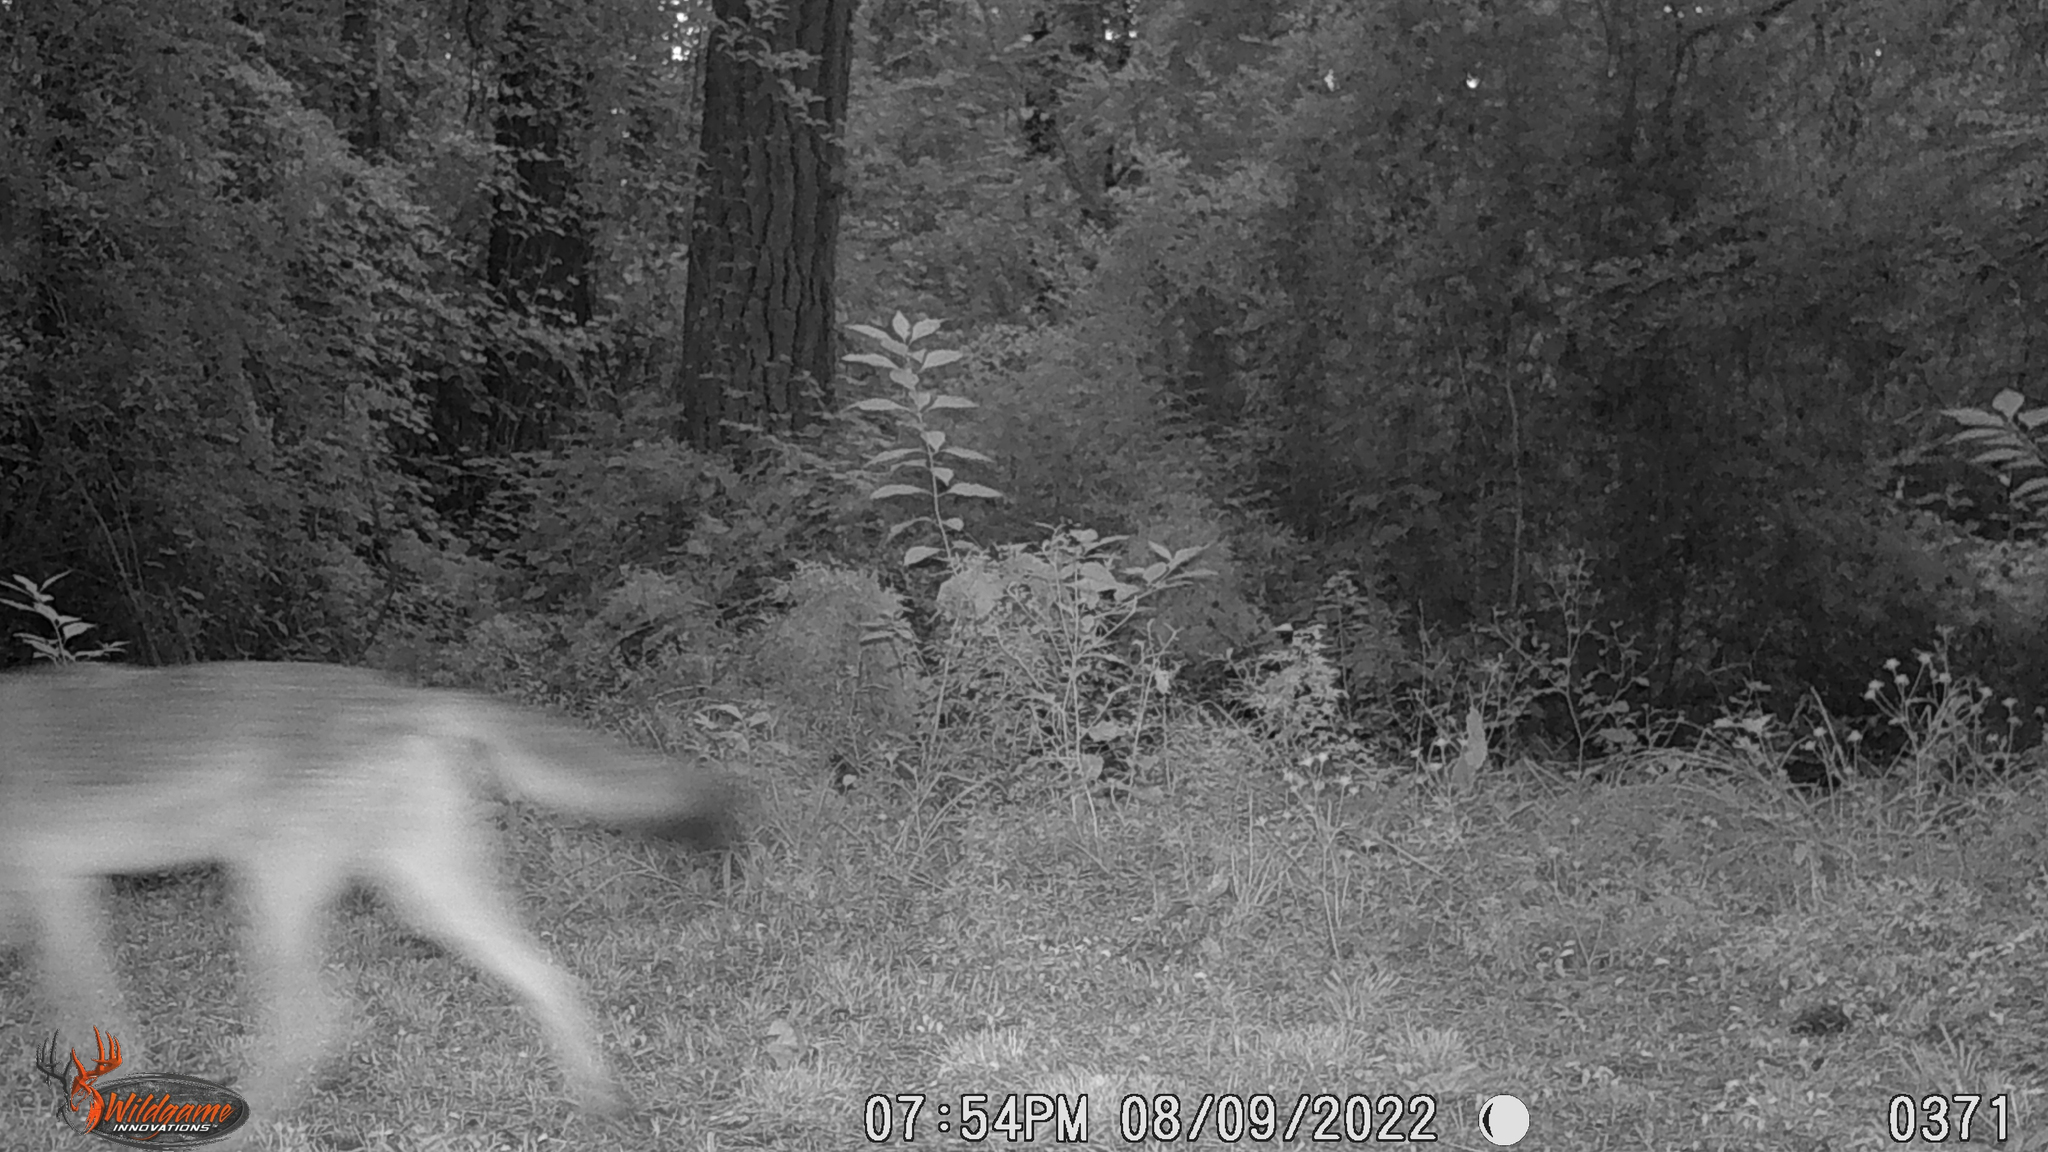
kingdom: Animalia
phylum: Chordata
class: Mammalia
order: Carnivora
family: Canidae
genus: Canis
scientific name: Canis latrans
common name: Coyote
